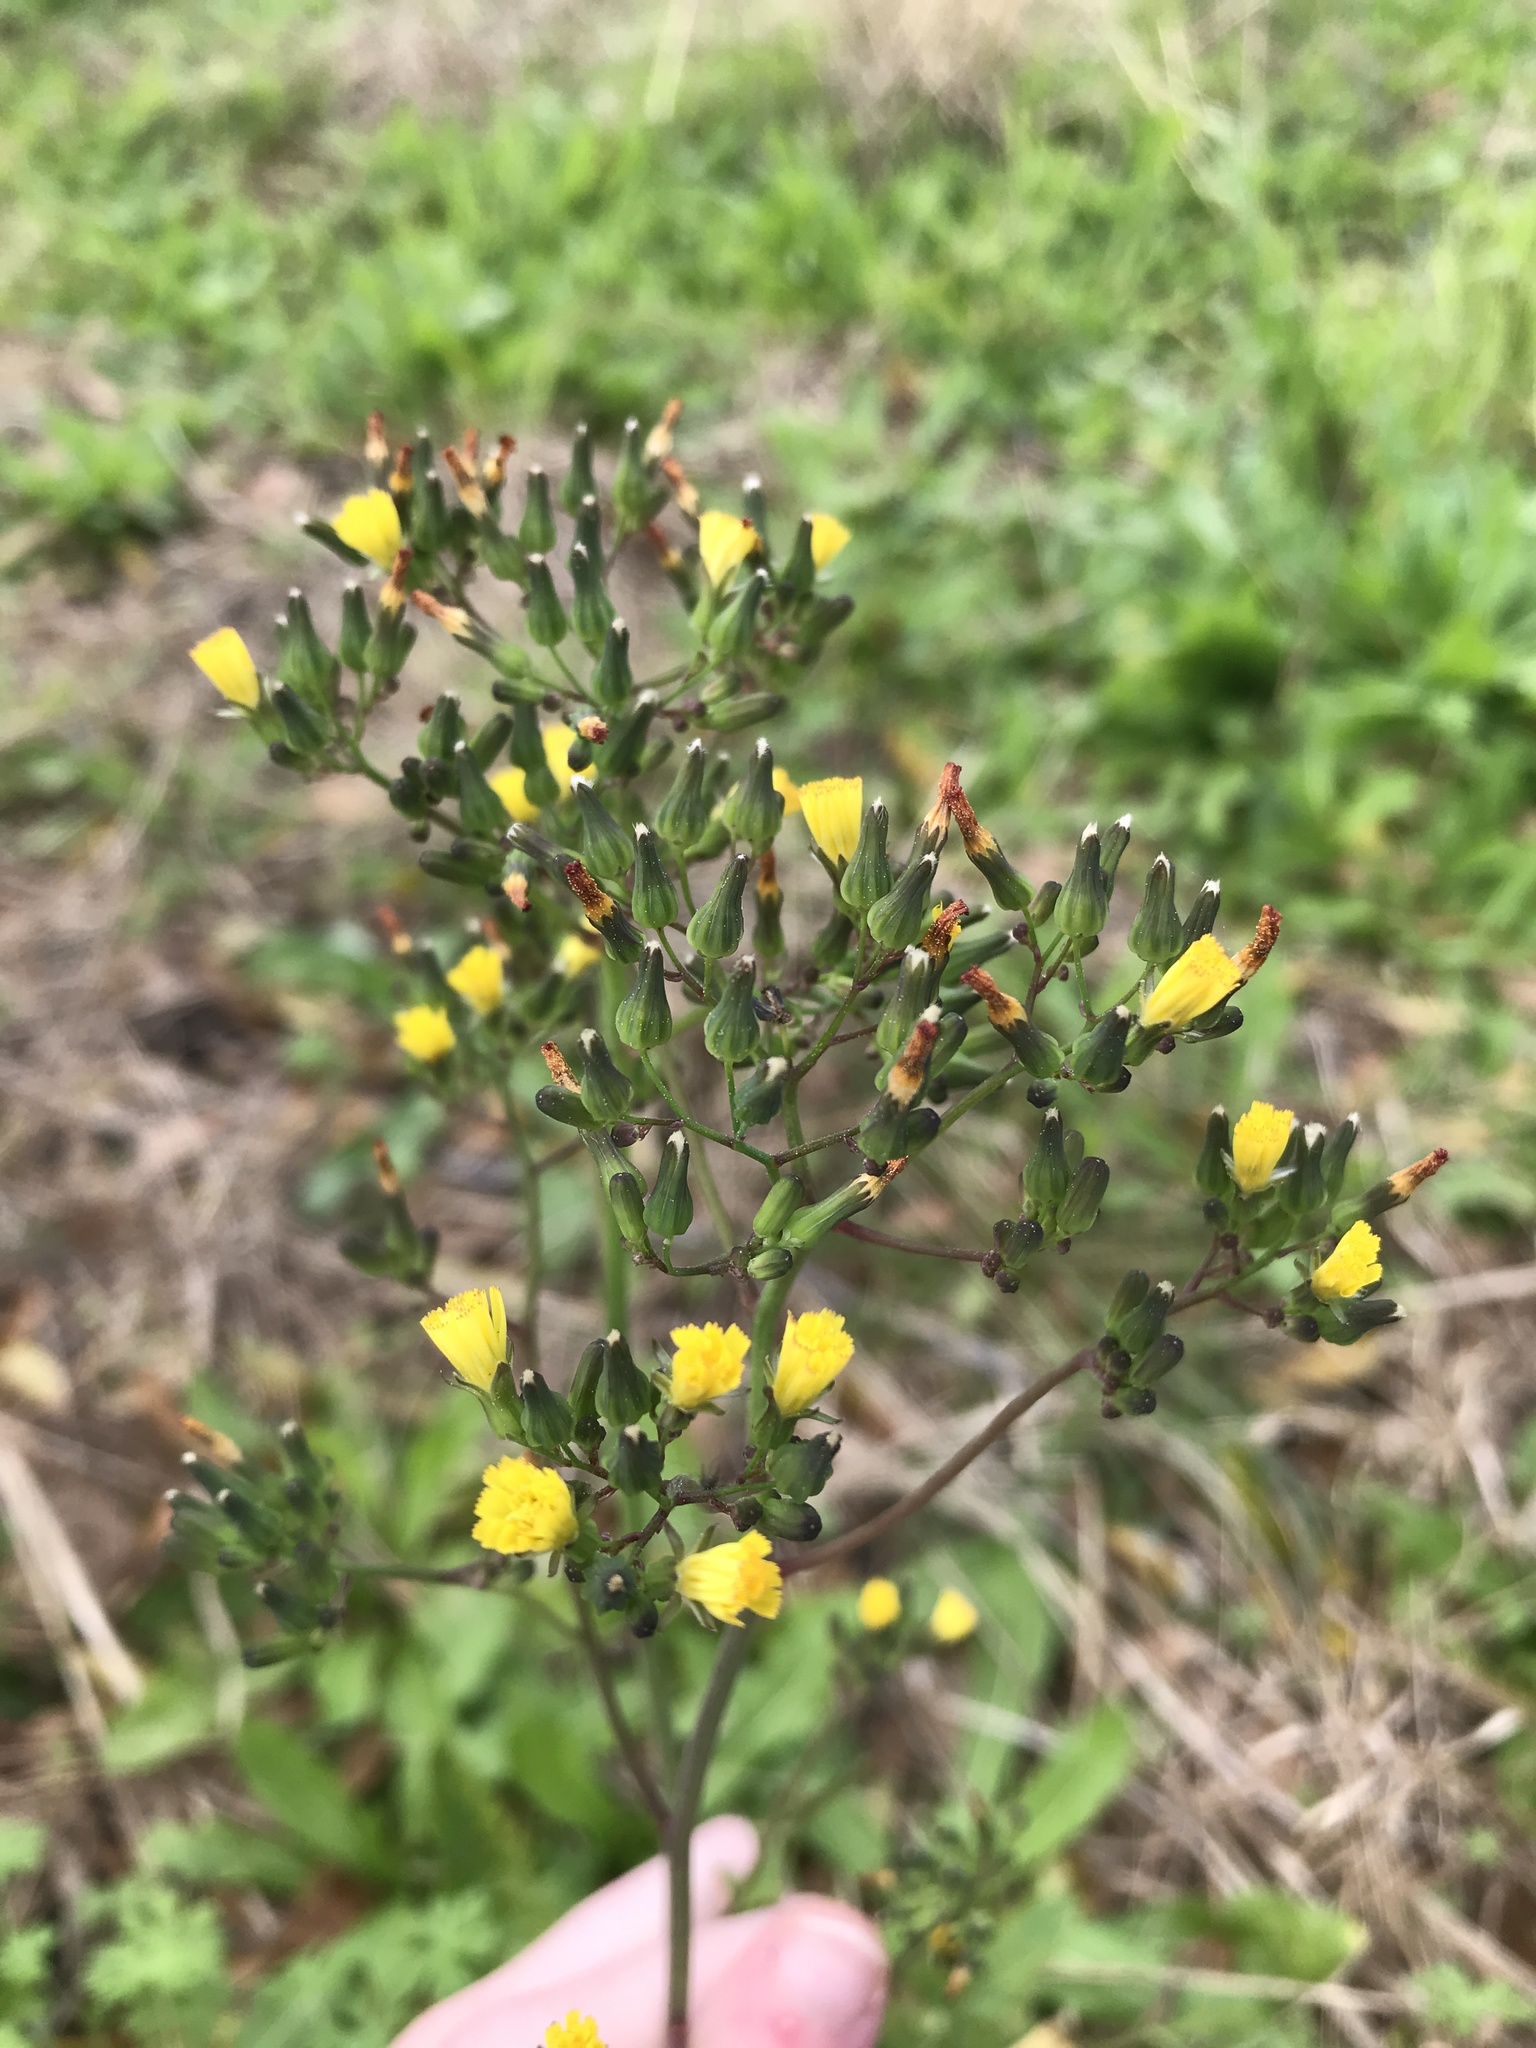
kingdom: Plantae
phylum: Tracheophyta
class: Magnoliopsida
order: Asterales
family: Asteraceae
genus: Youngia
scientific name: Youngia japonica
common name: Oriental false hawksbeard
